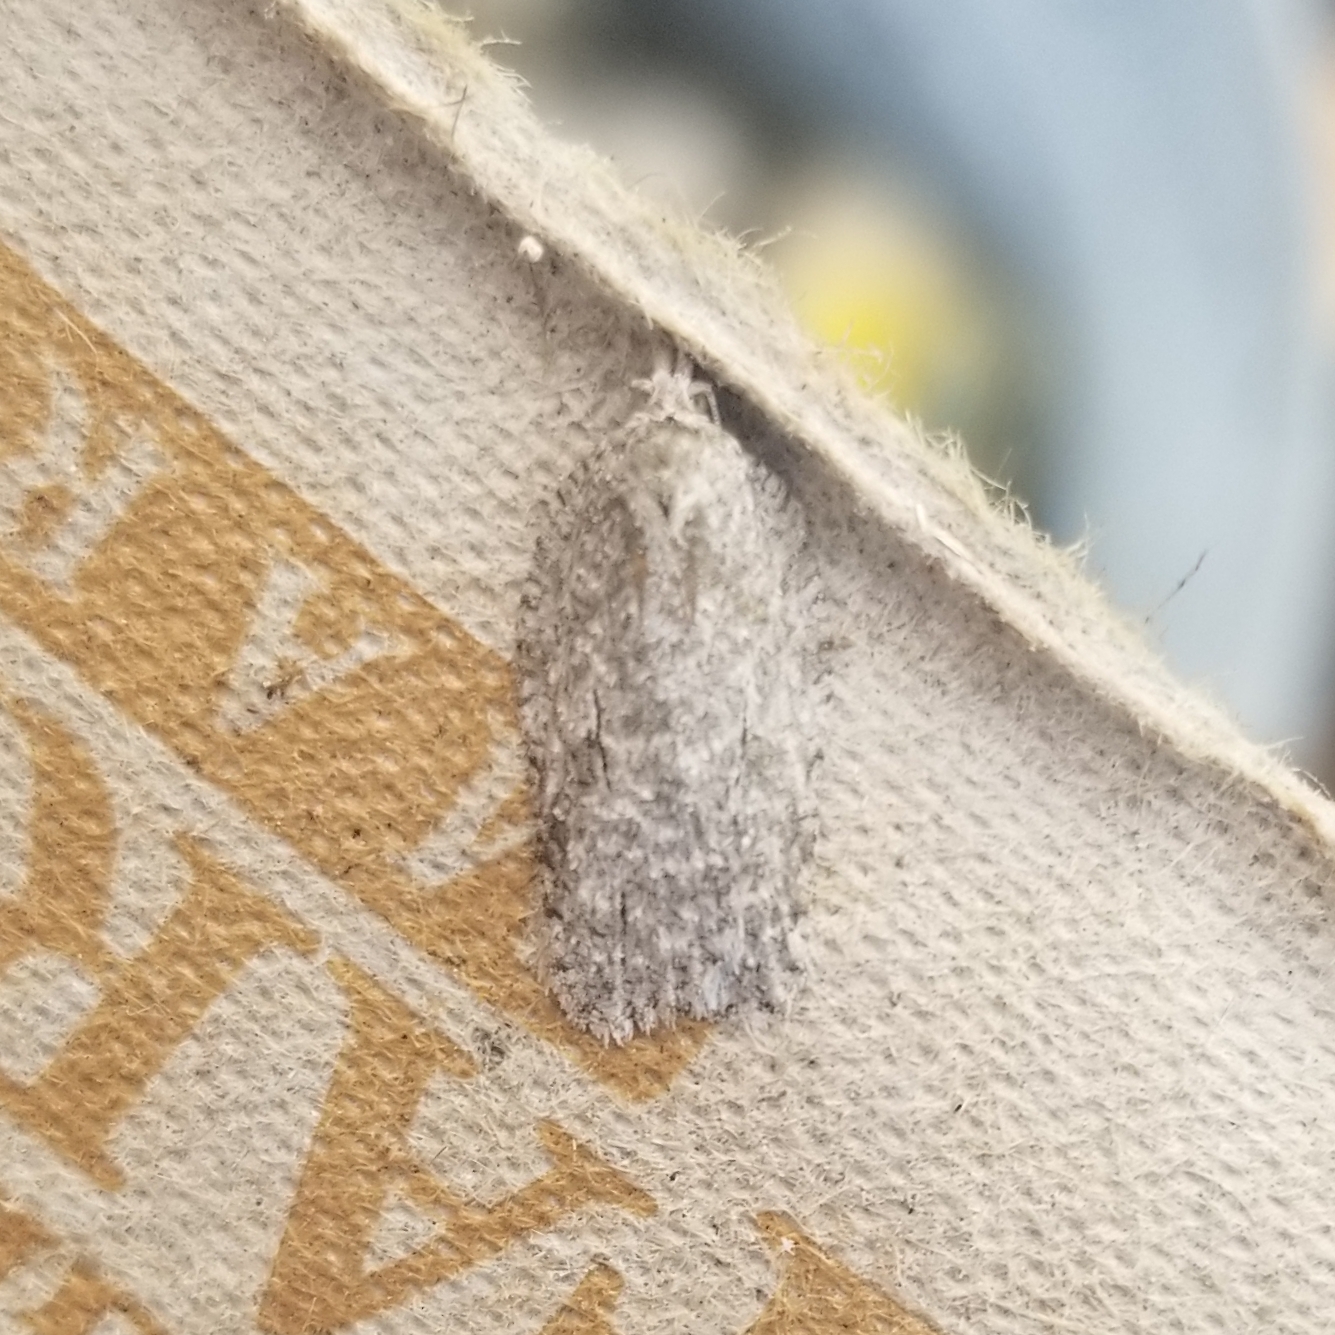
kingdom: Animalia
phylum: Arthropoda
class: Insecta
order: Lepidoptera
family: Tortricidae
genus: Acleris
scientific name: Acleris nigrolinea
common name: Black-lined acleris
